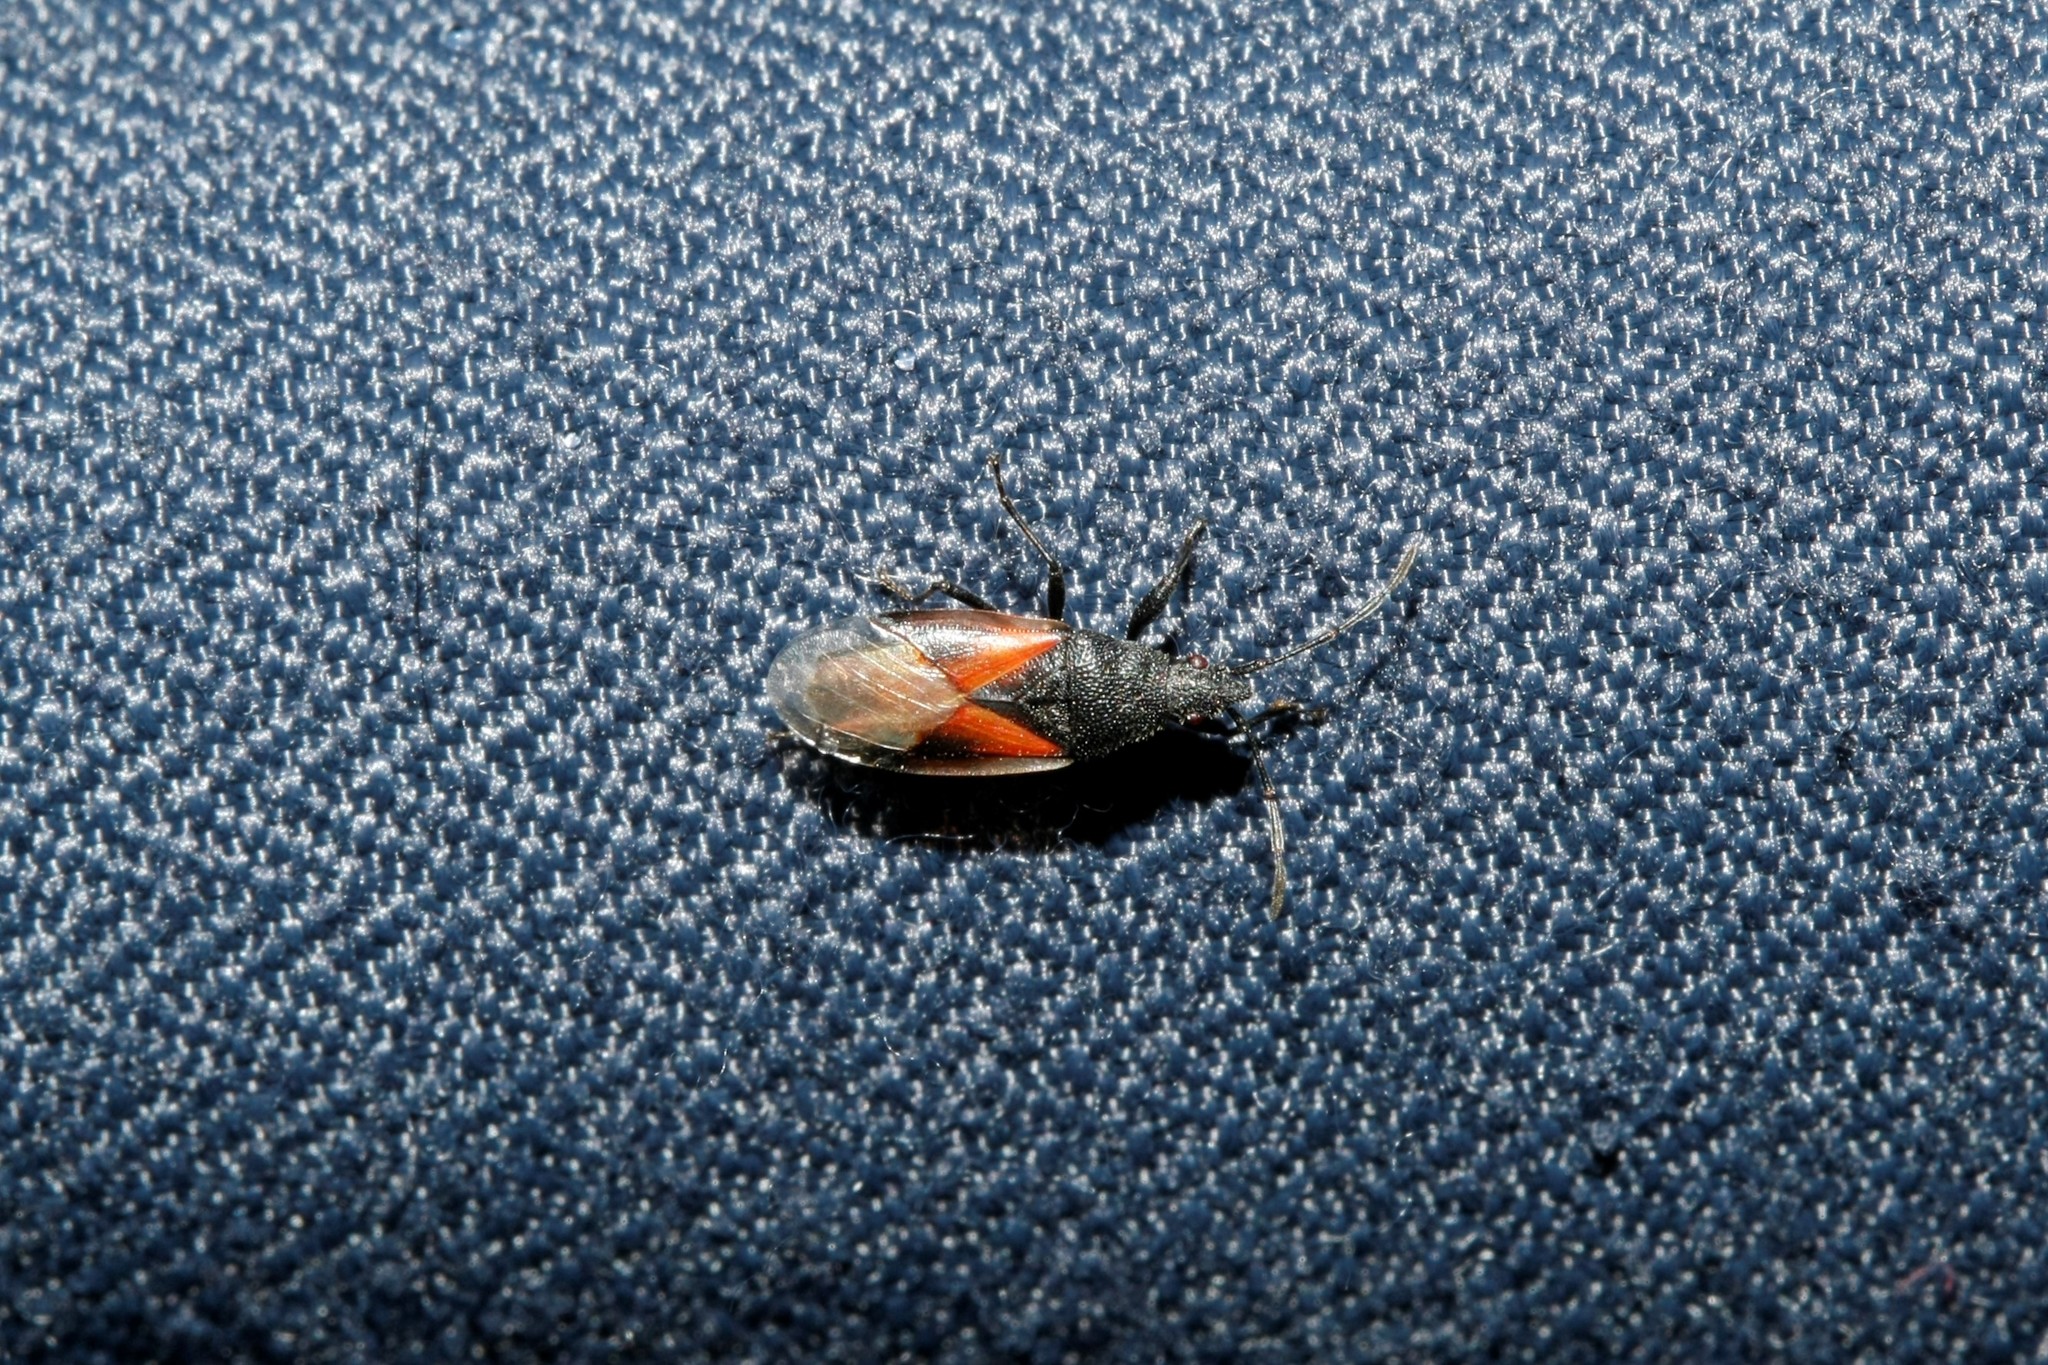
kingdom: Animalia
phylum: Arthropoda
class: Insecta
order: Hemiptera
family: Oxycarenidae
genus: Oxycarenus
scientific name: Oxycarenus lavaterae
